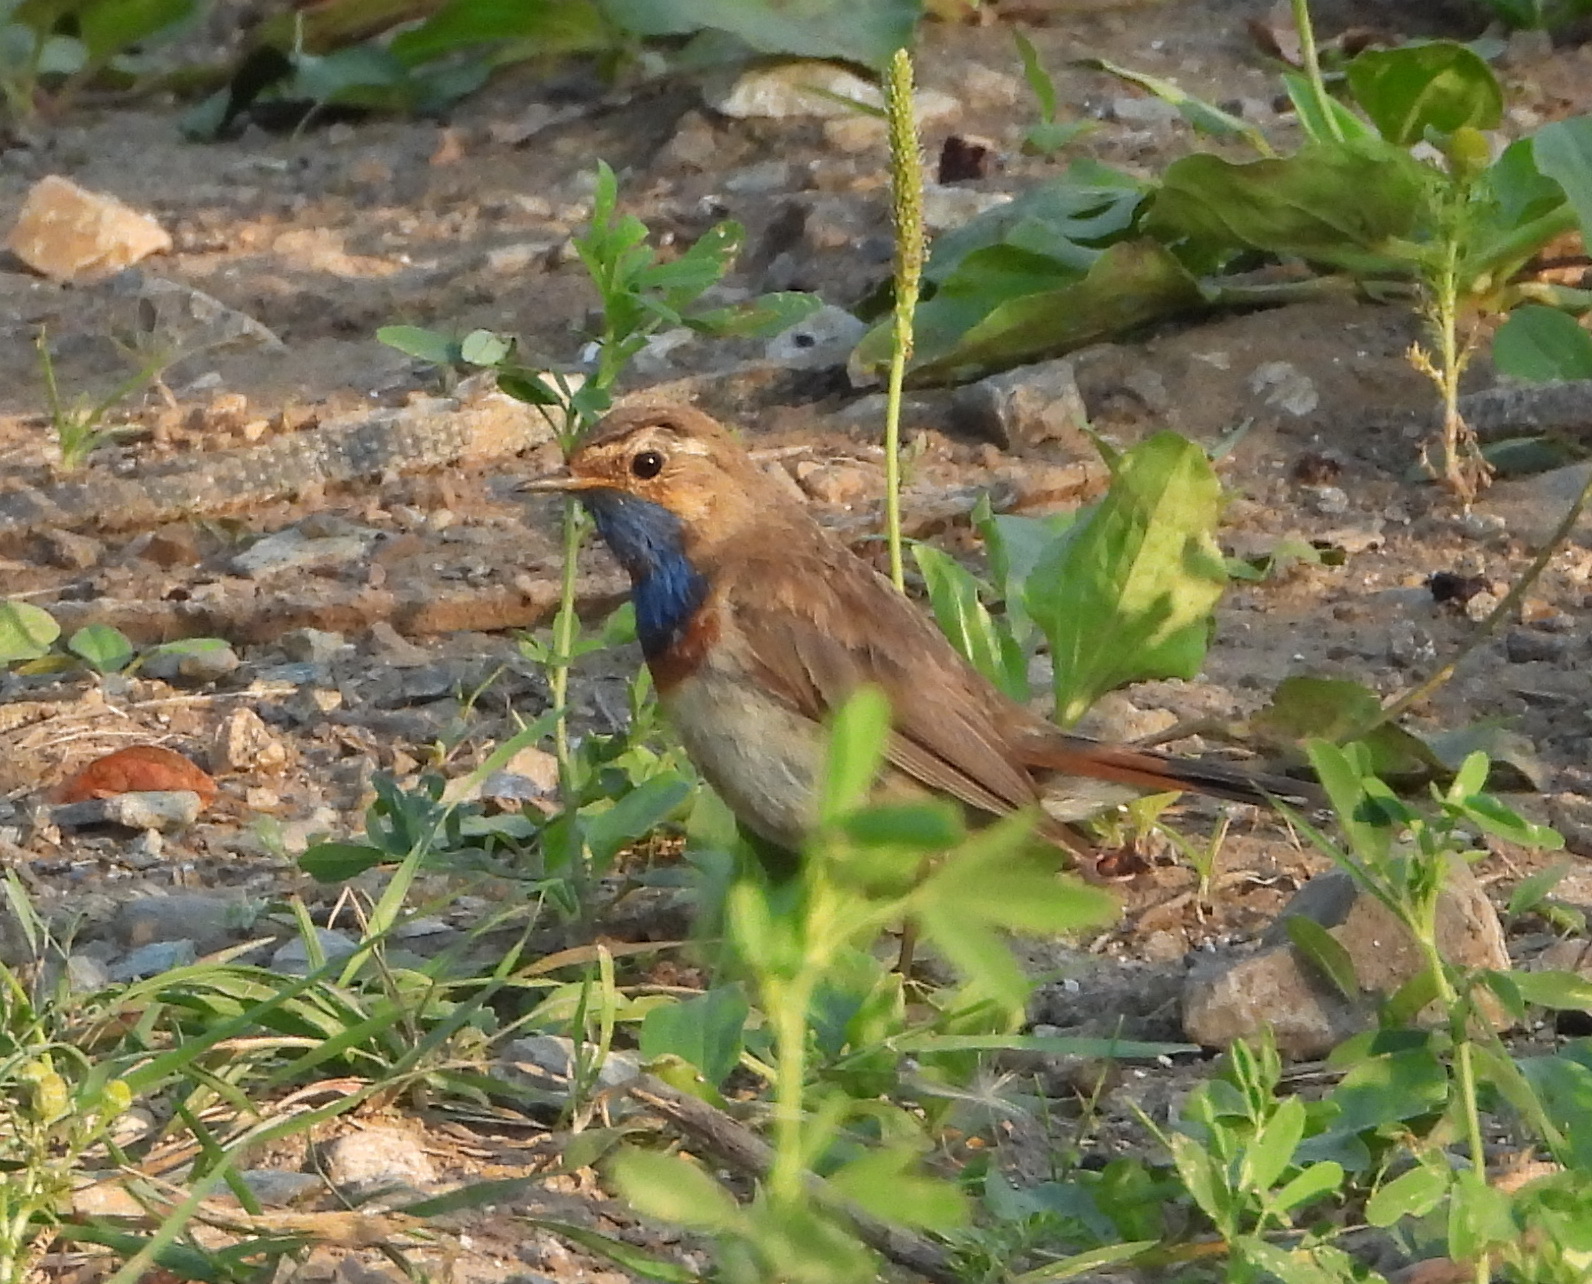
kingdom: Animalia
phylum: Chordata
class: Aves
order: Passeriformes
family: Muscicapidae
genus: Luscinia
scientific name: Luscinia svecica
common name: Bluethroat
